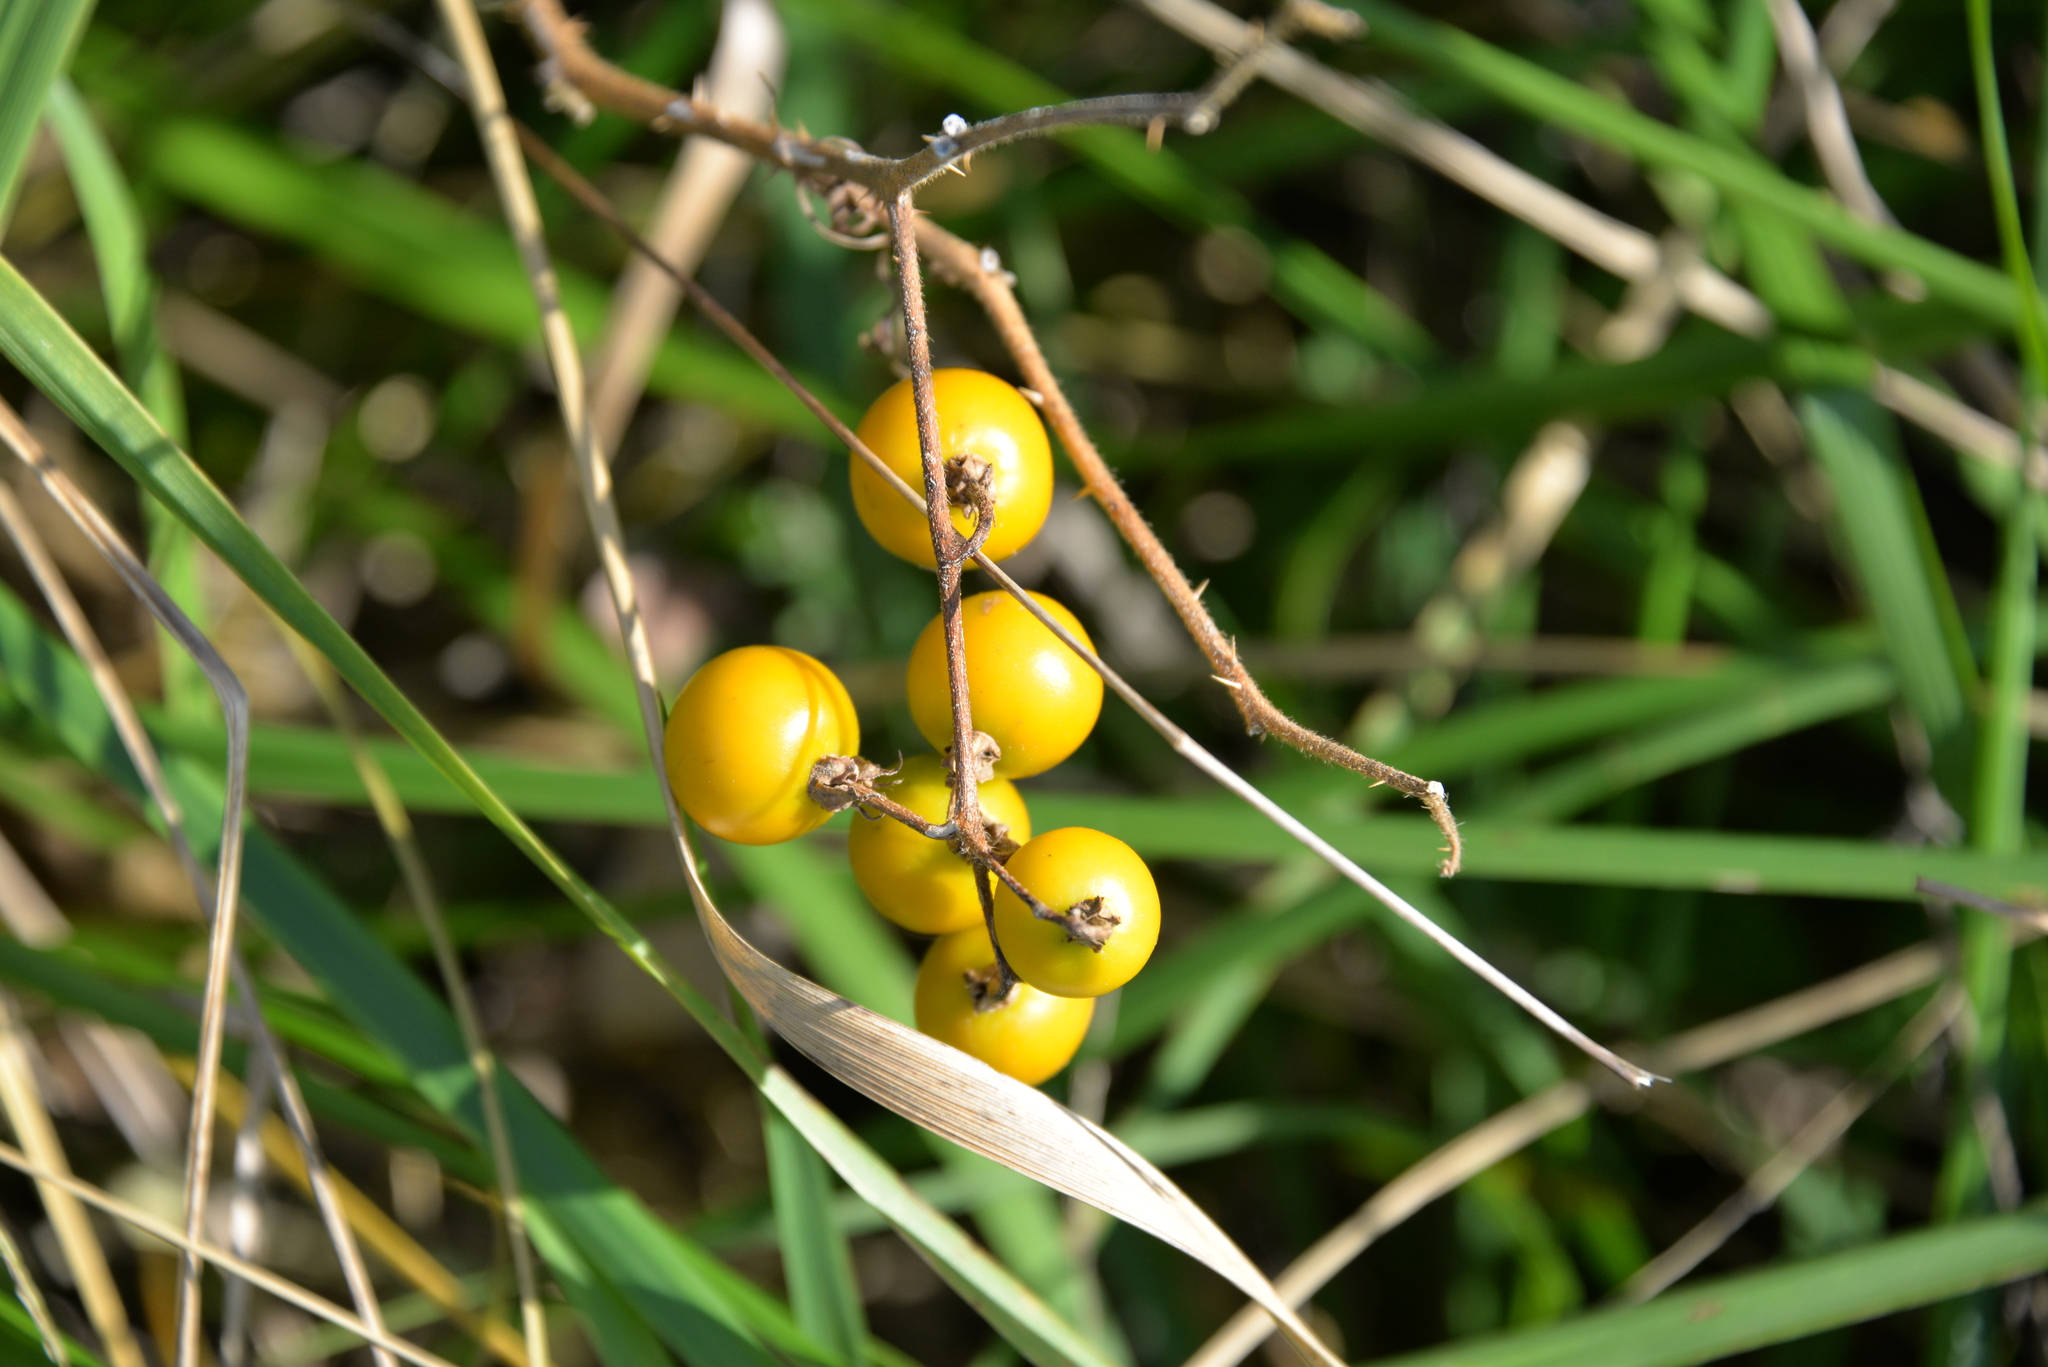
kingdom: Plantae
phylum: Tracheophyta
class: Magnoliopsida
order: Solanales
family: Solanaceae
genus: Solanum
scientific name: Solanum carolinense
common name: Horse-nettle
